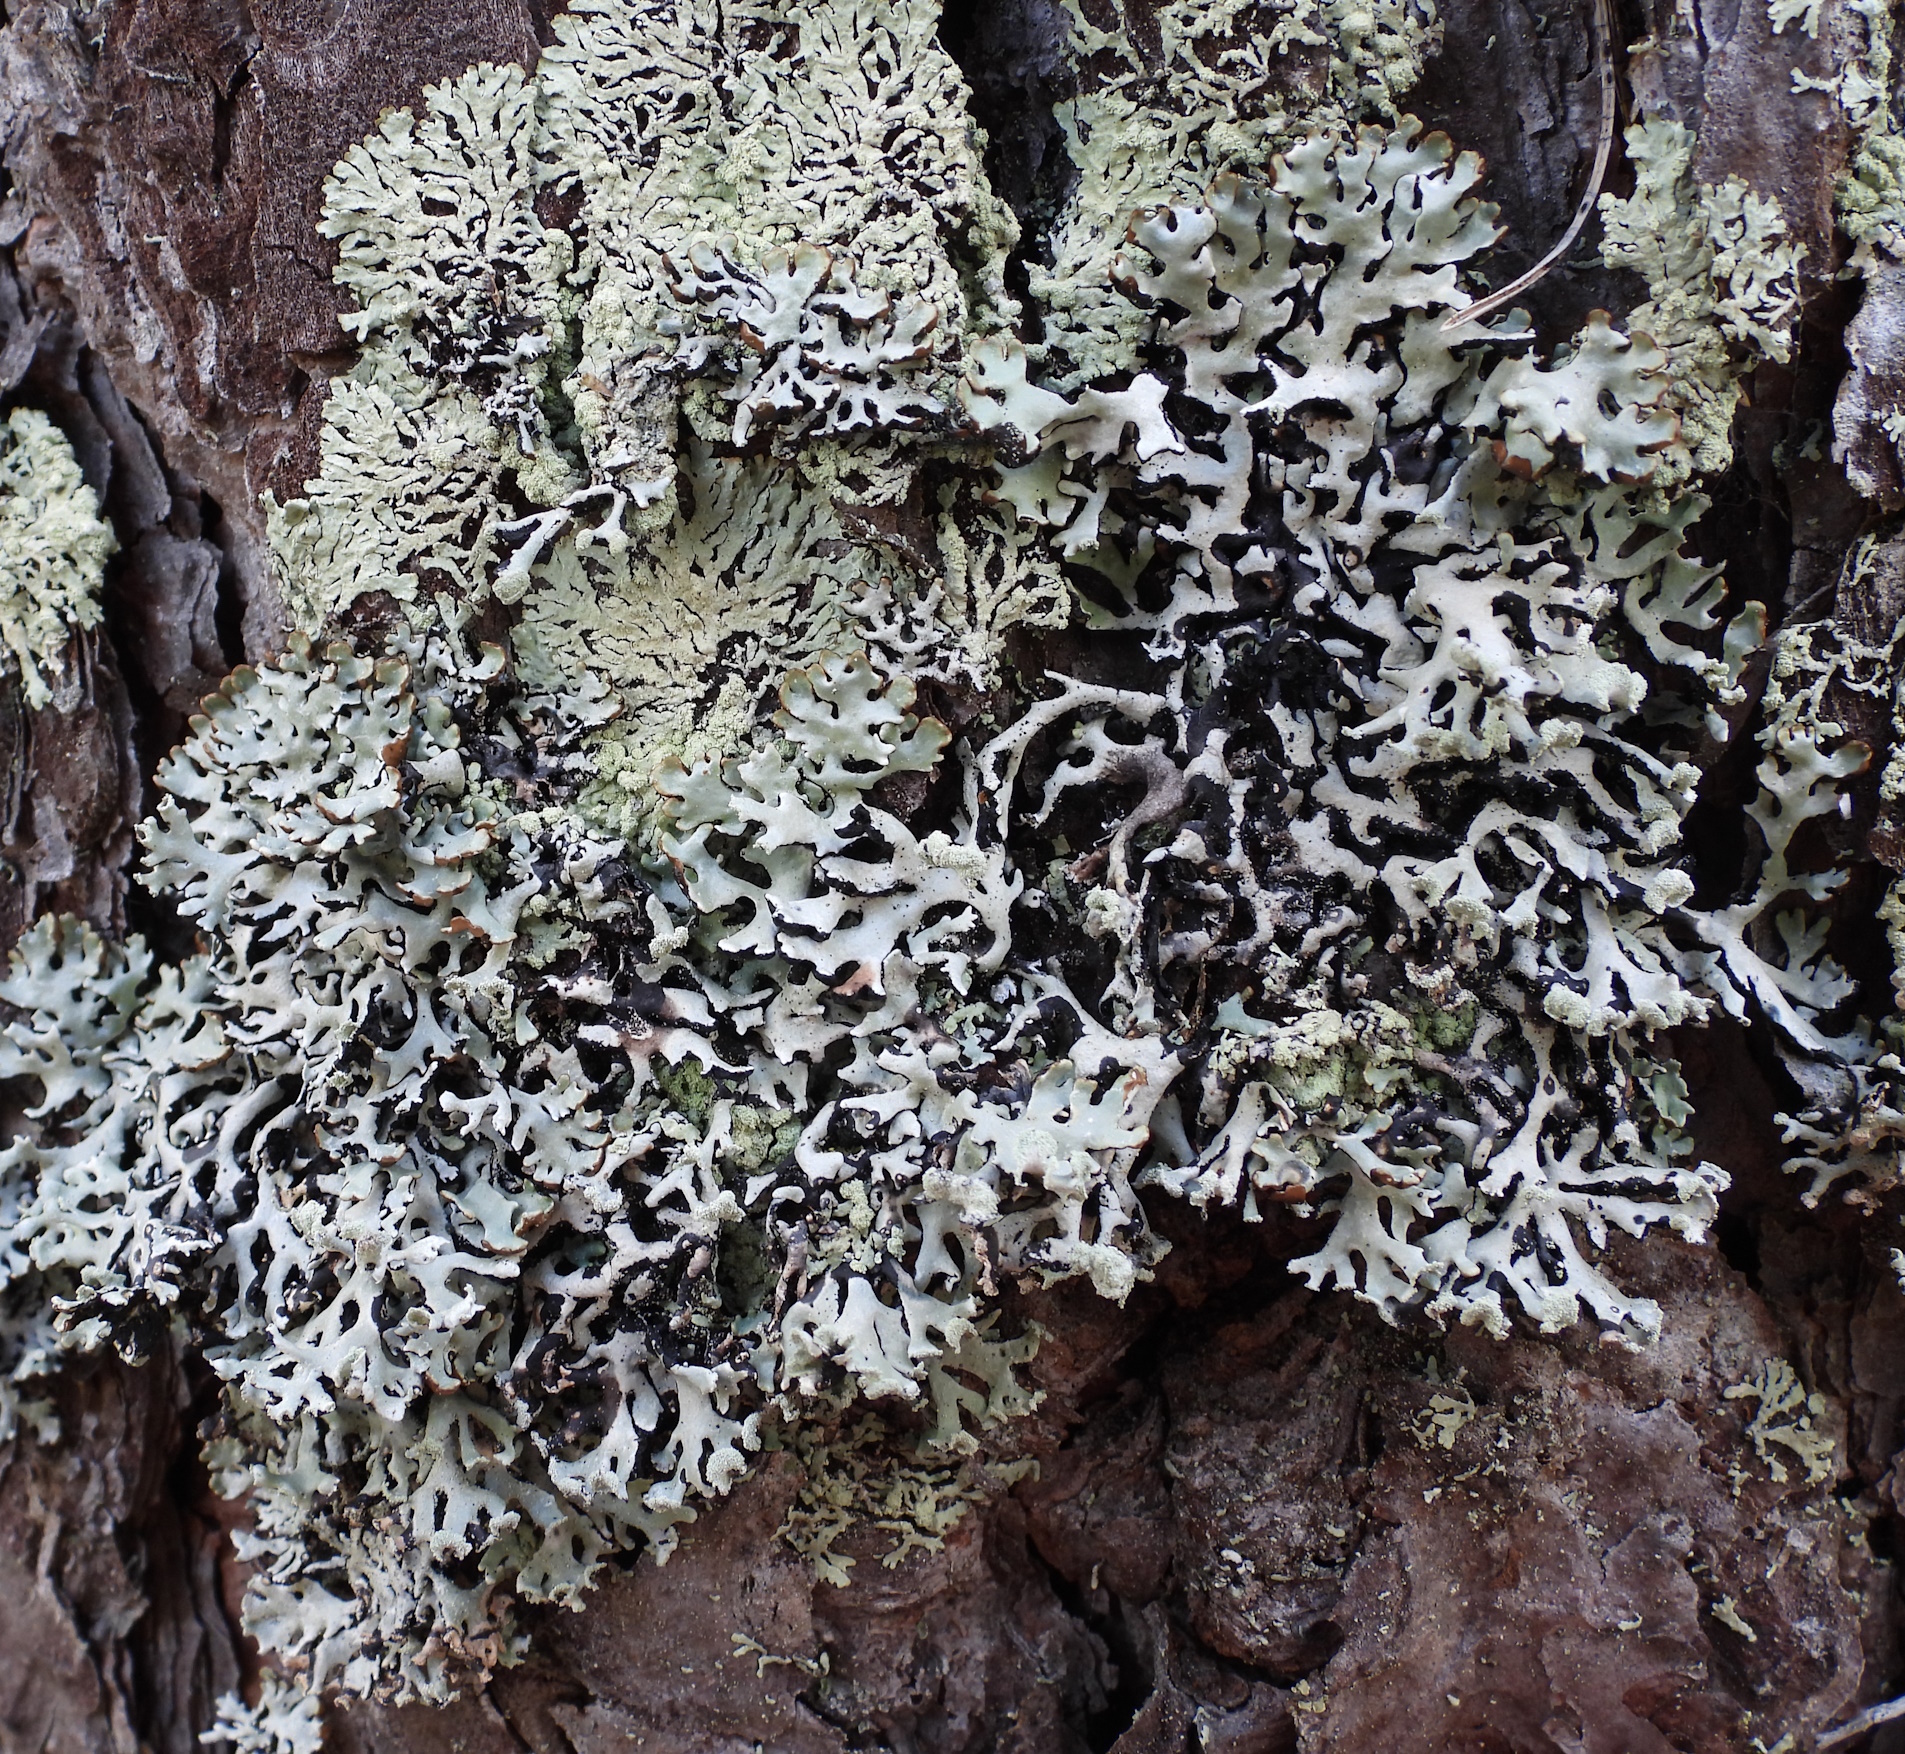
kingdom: Fungi
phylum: Ascomycota
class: Lecanoromycetes
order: Lecanorales
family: Parmeliaceae
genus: Hypogymnia
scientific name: Hypogymnia physodes
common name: Dark crottle
